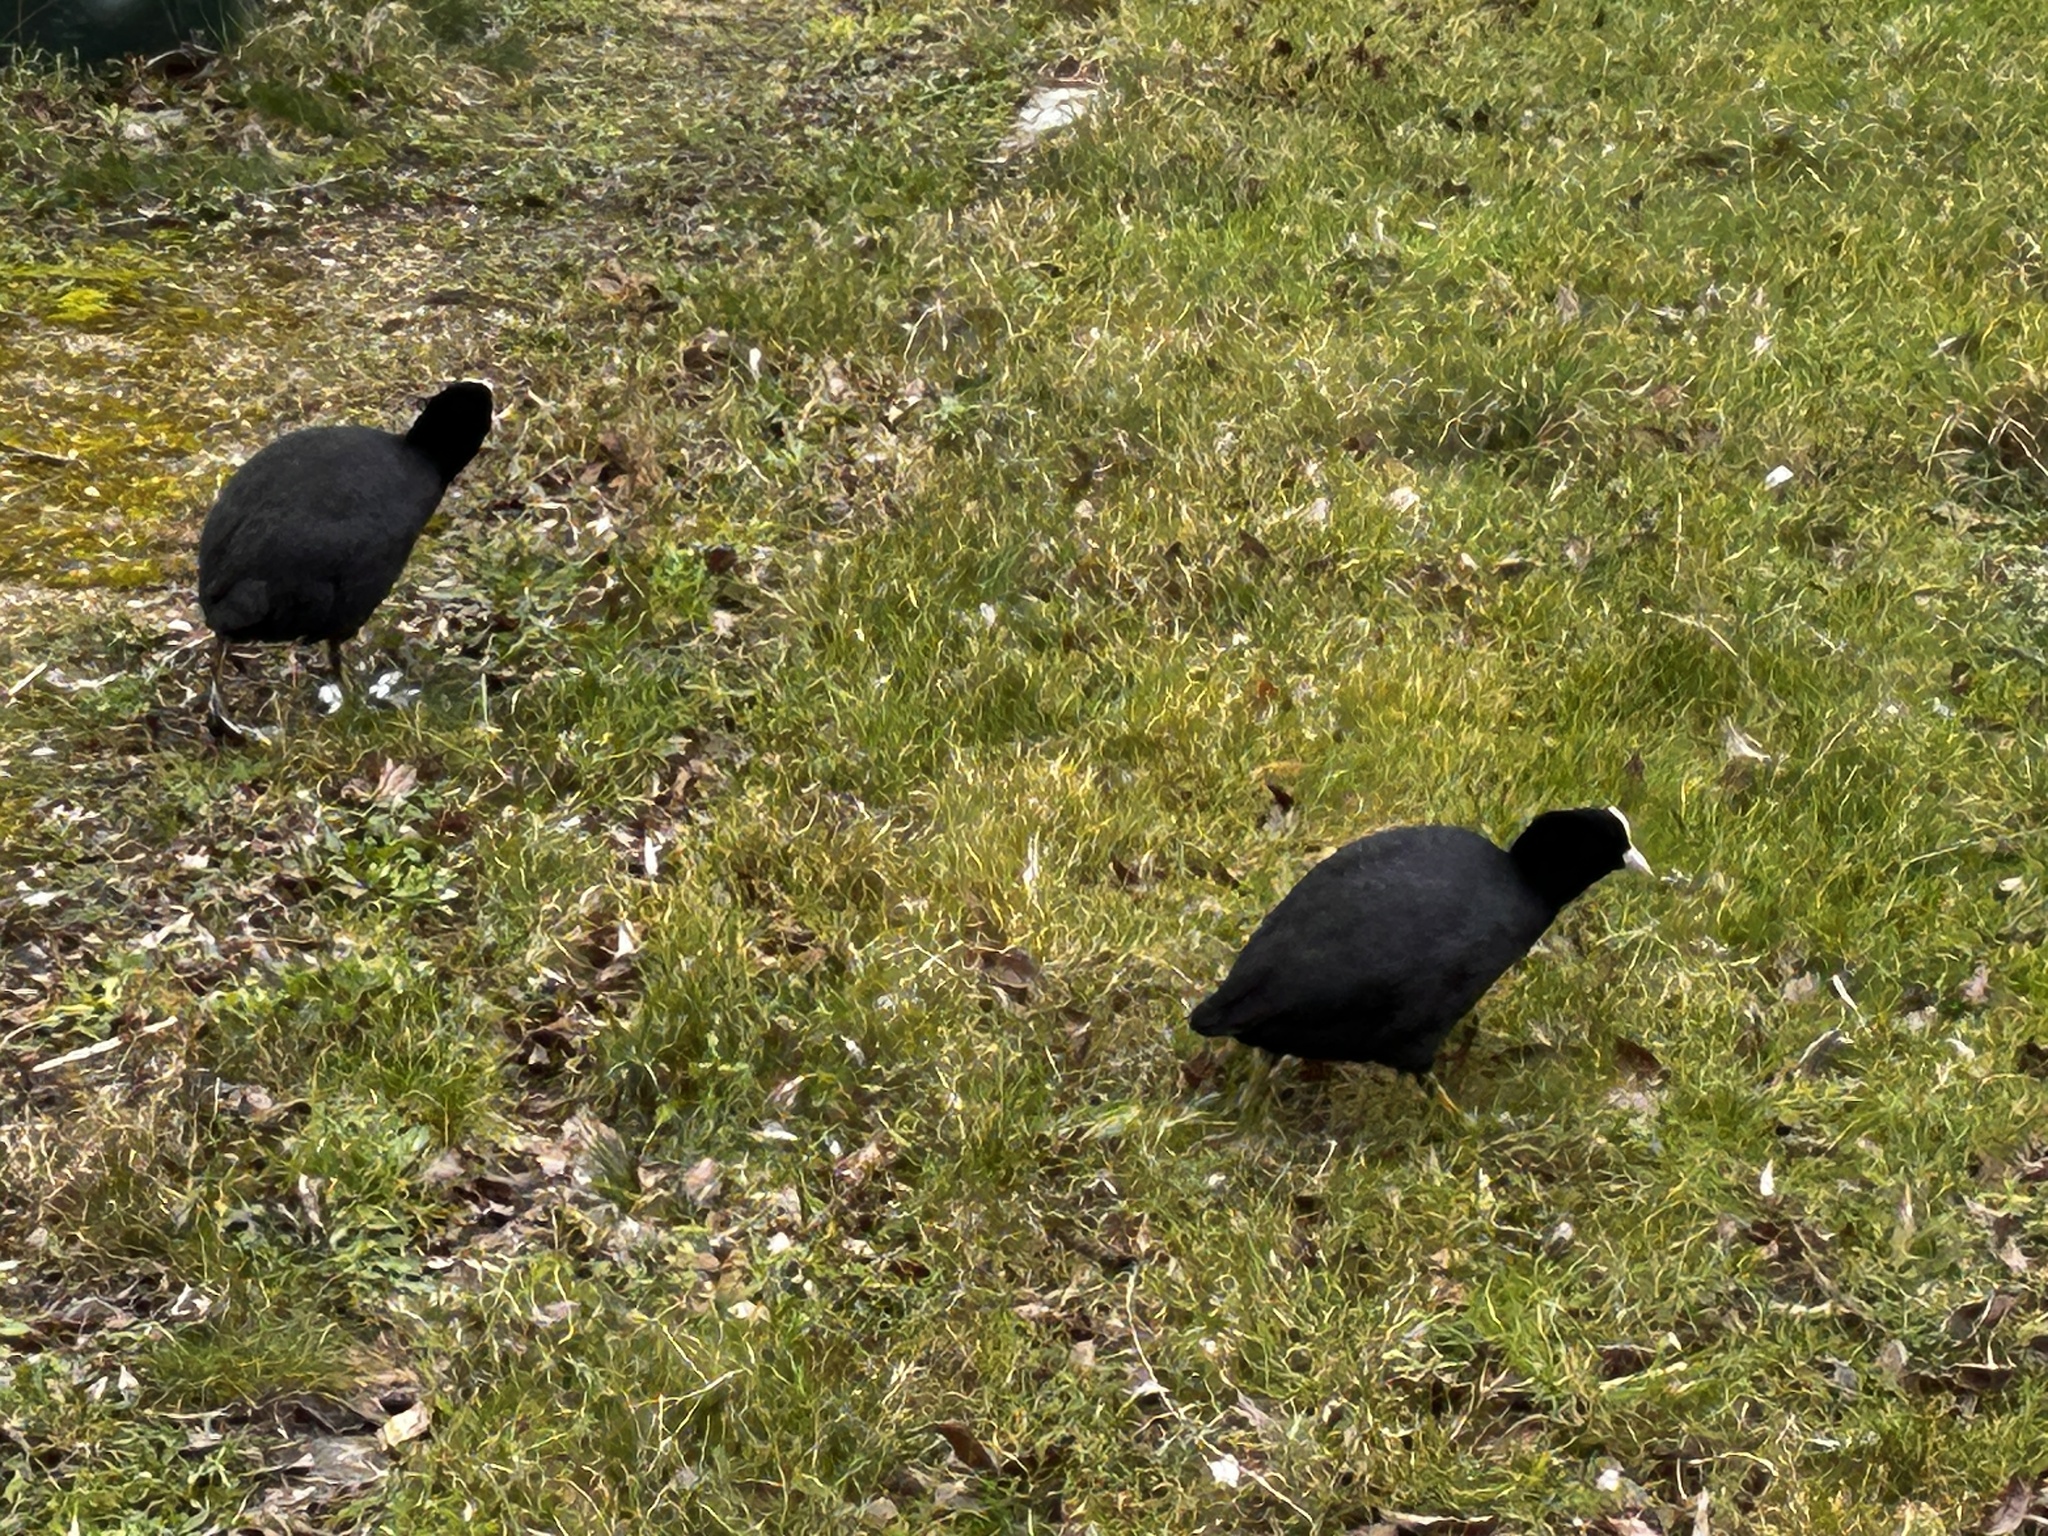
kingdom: Animalia
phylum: Chordata
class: Aves
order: Gruiformes
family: Rallidae
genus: Fulica
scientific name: Fulica atra
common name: Eurasian coot
